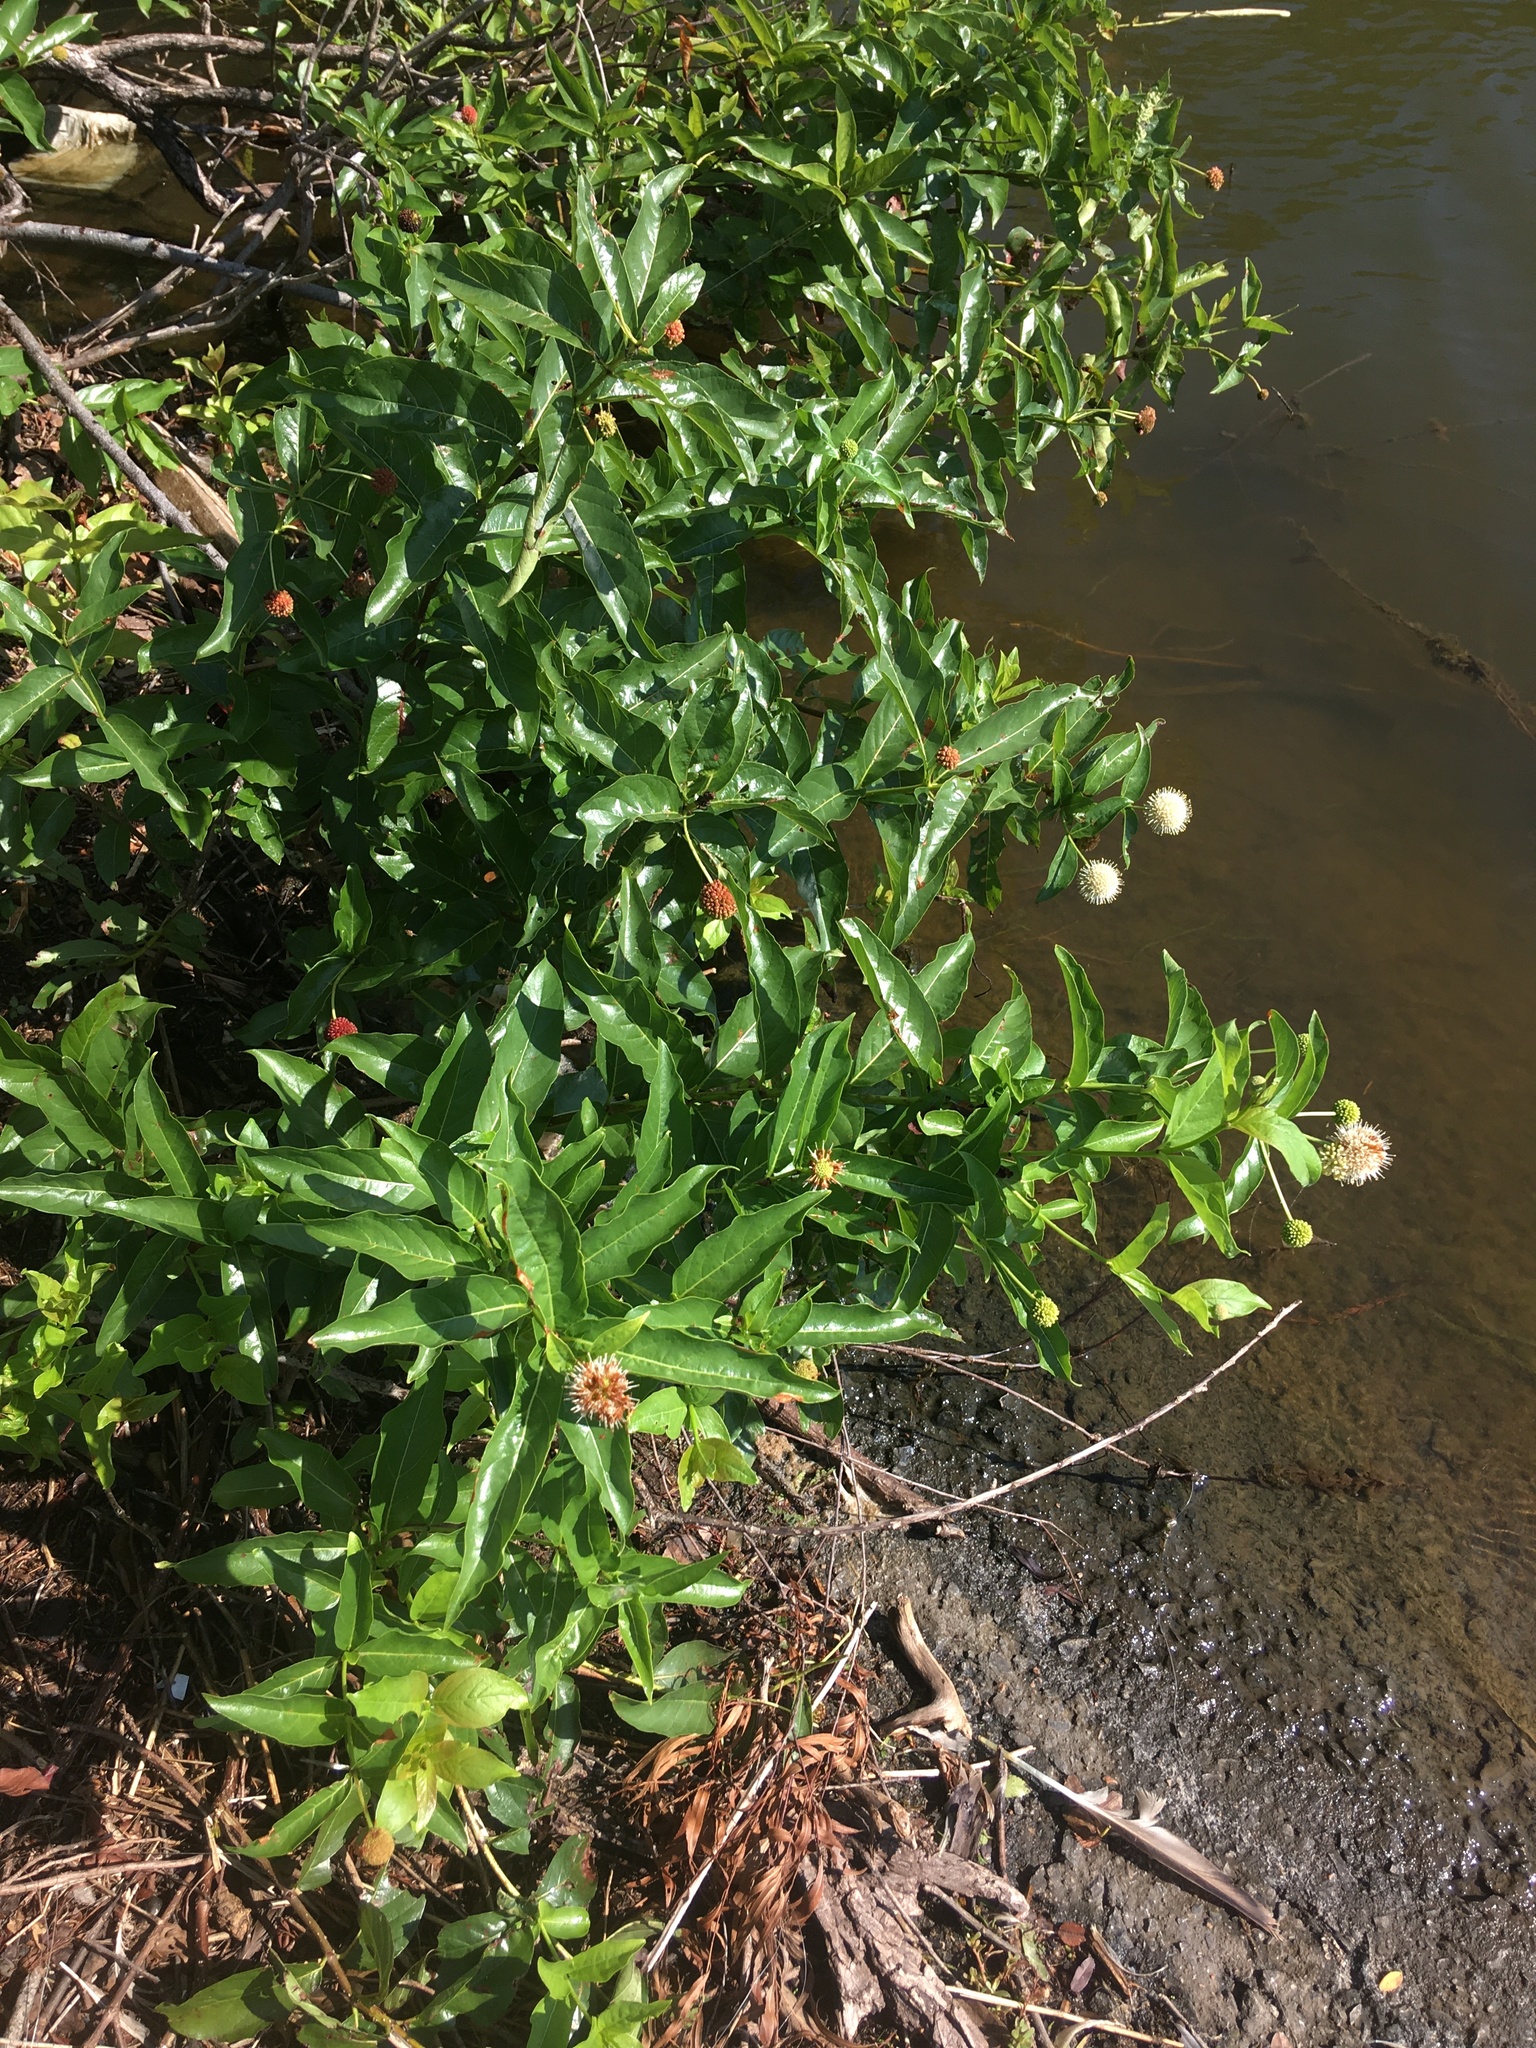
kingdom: Plantae
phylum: Tracheophyta
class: Magnoliopsida
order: Gentianales
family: Rubiaceae
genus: Cephalanthus
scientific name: Cephalanthus occidentalis
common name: Button-willow
